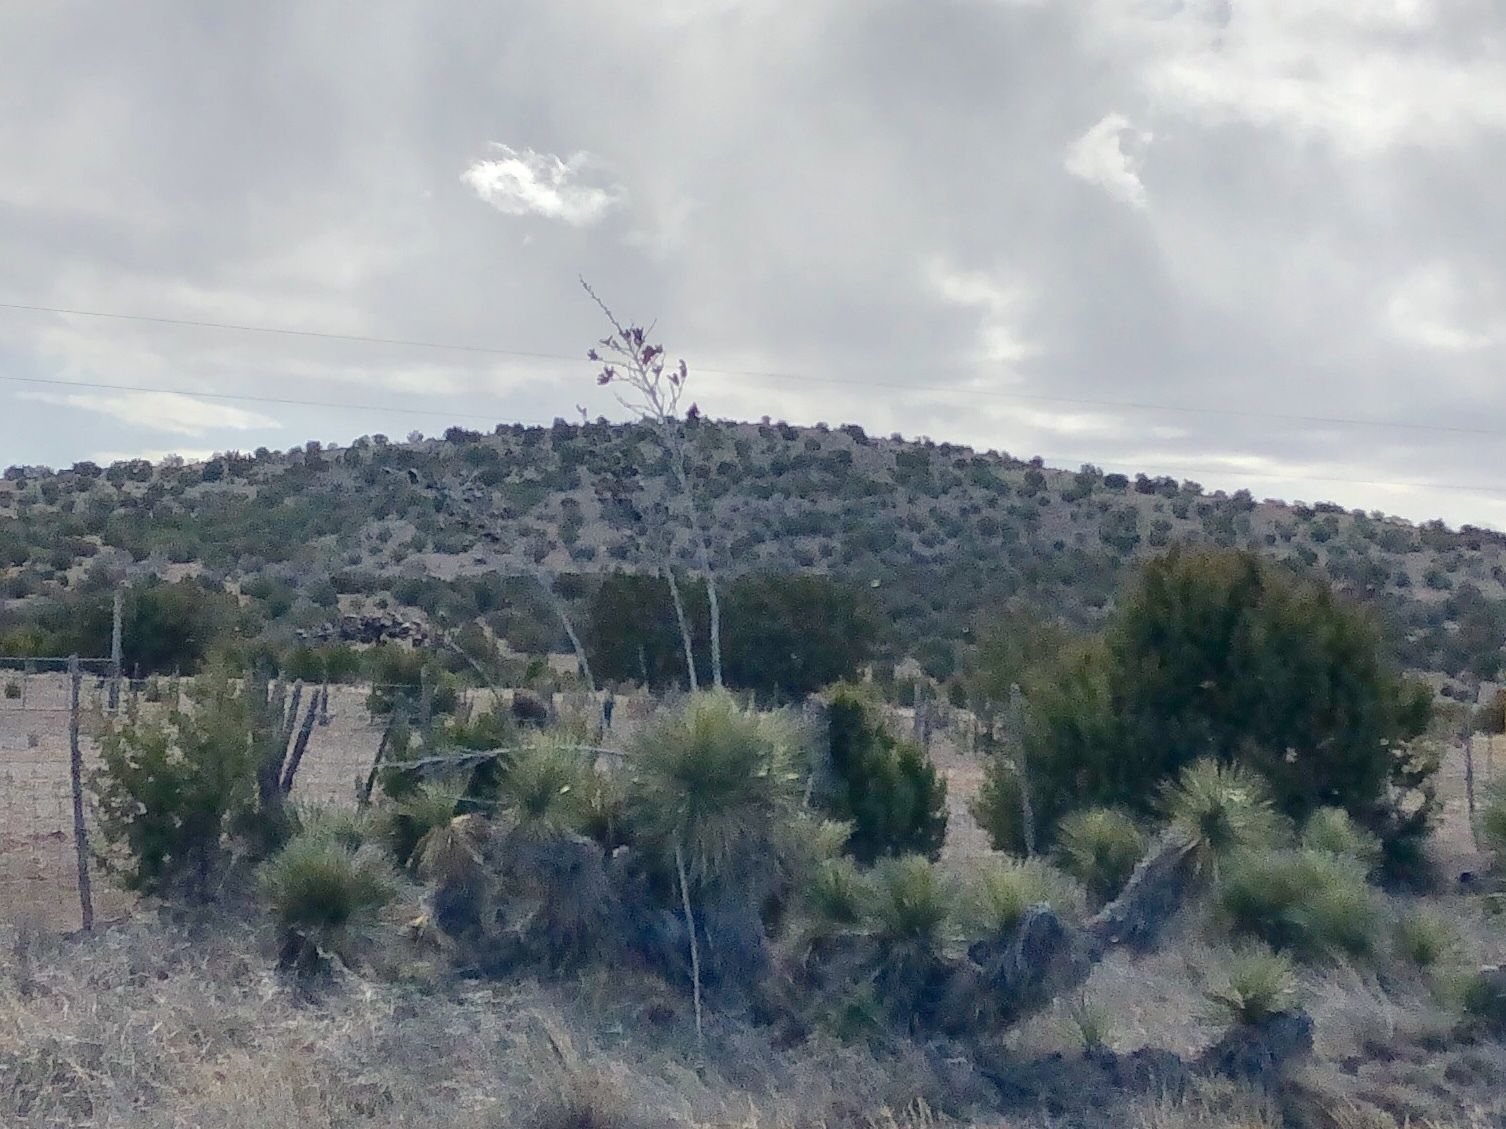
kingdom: Plantae
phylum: Tracheophyta
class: Liliopsida
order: Asparagales
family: Asparagaceae
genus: Yucca
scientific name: Yucca elata
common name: Palmella
